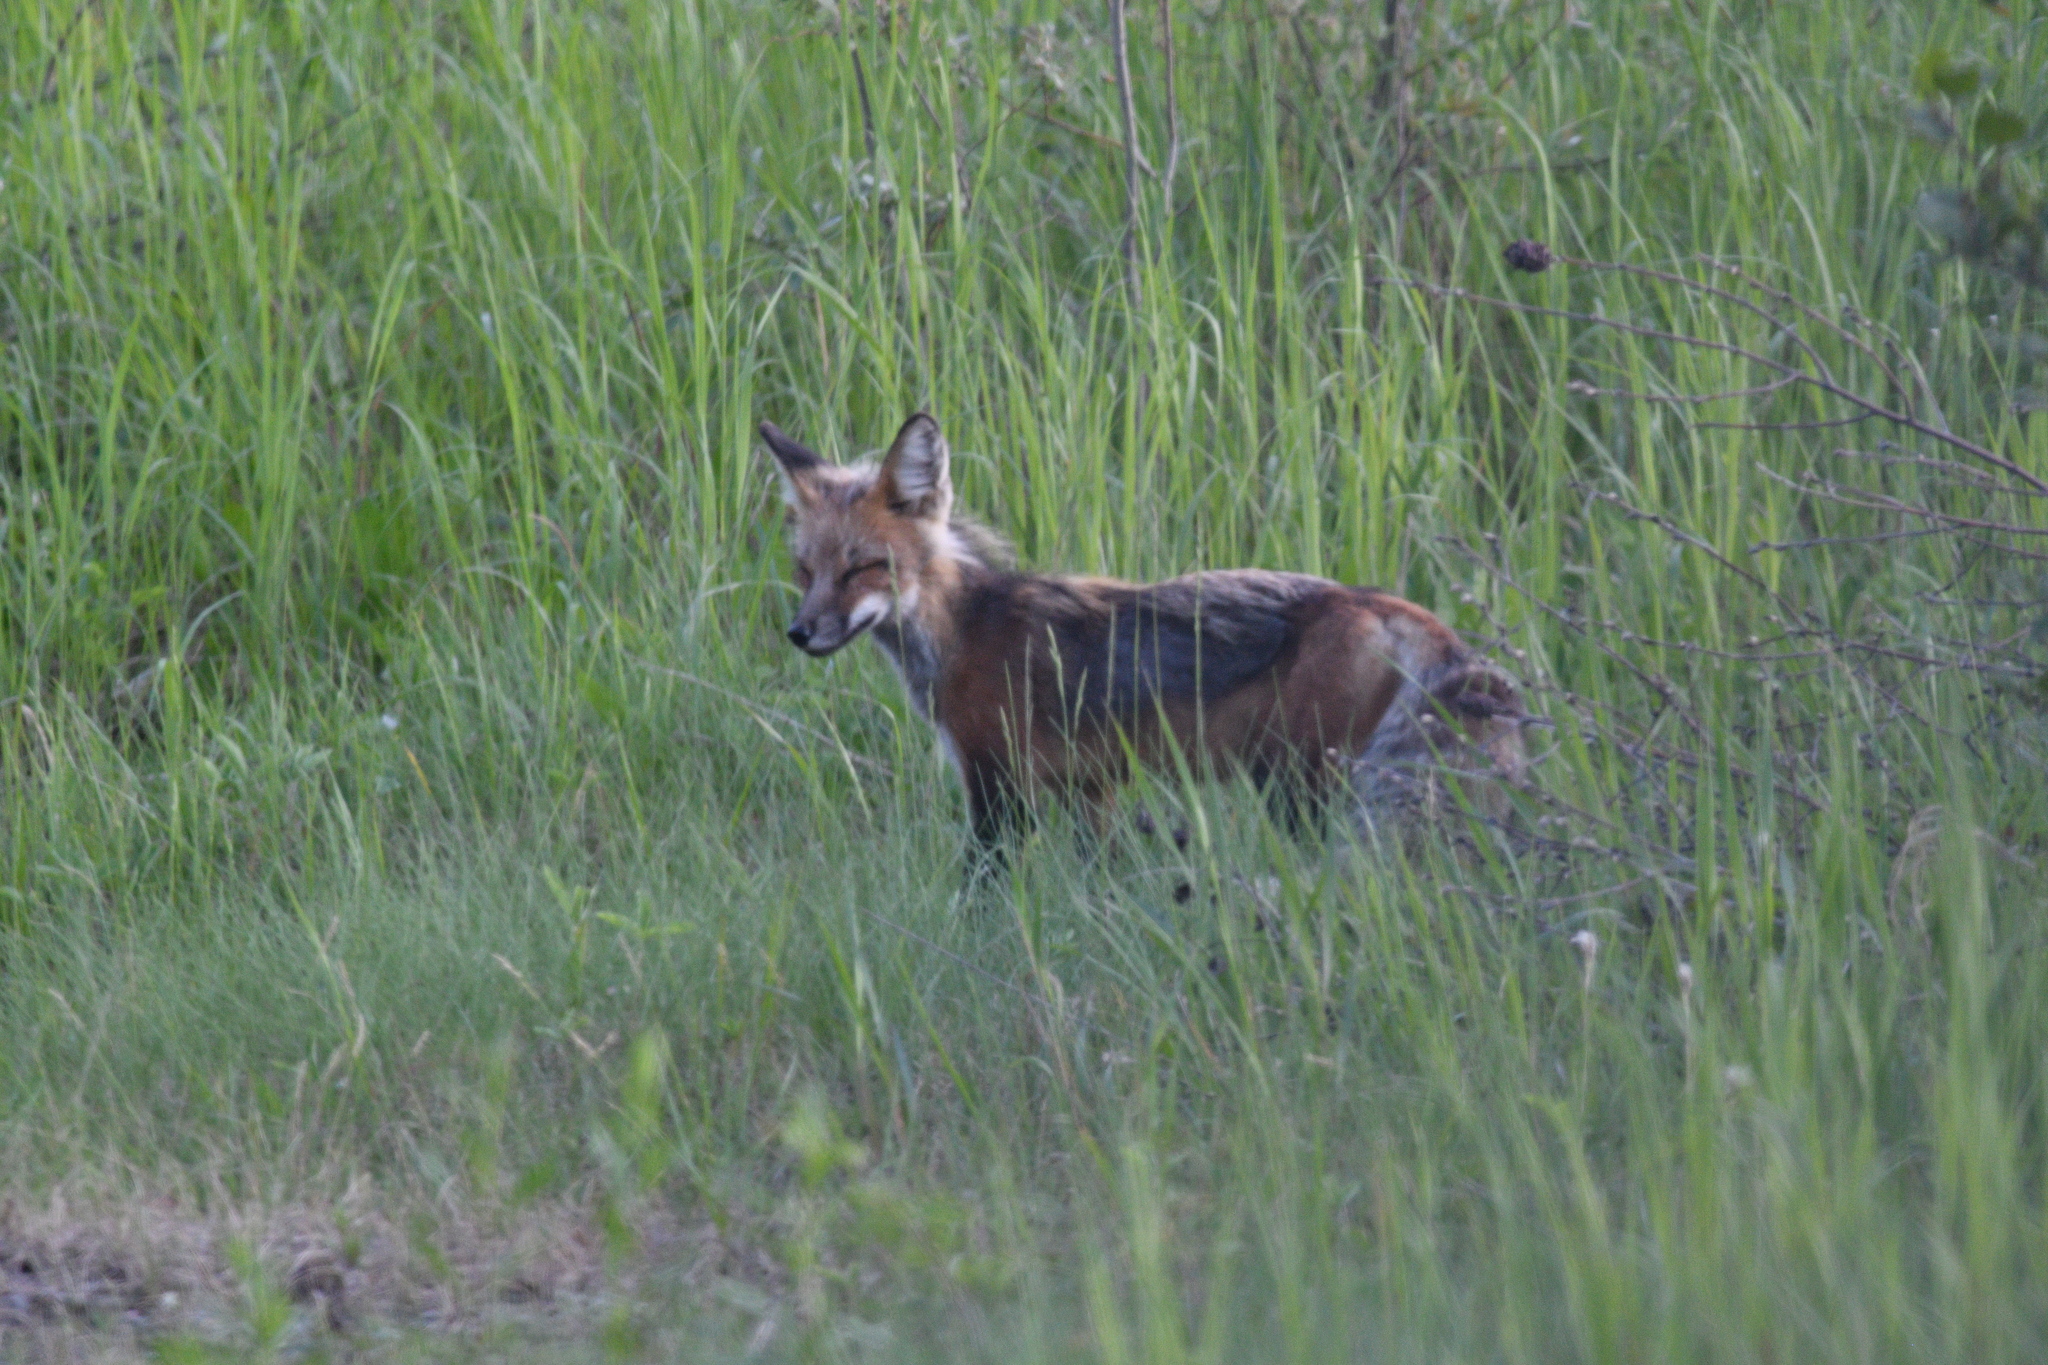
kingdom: Animalia
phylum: Chordata
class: Mammalia
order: Carnivora
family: Canidae
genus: Vulpes
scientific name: Vulpes vulpes
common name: Red fox
